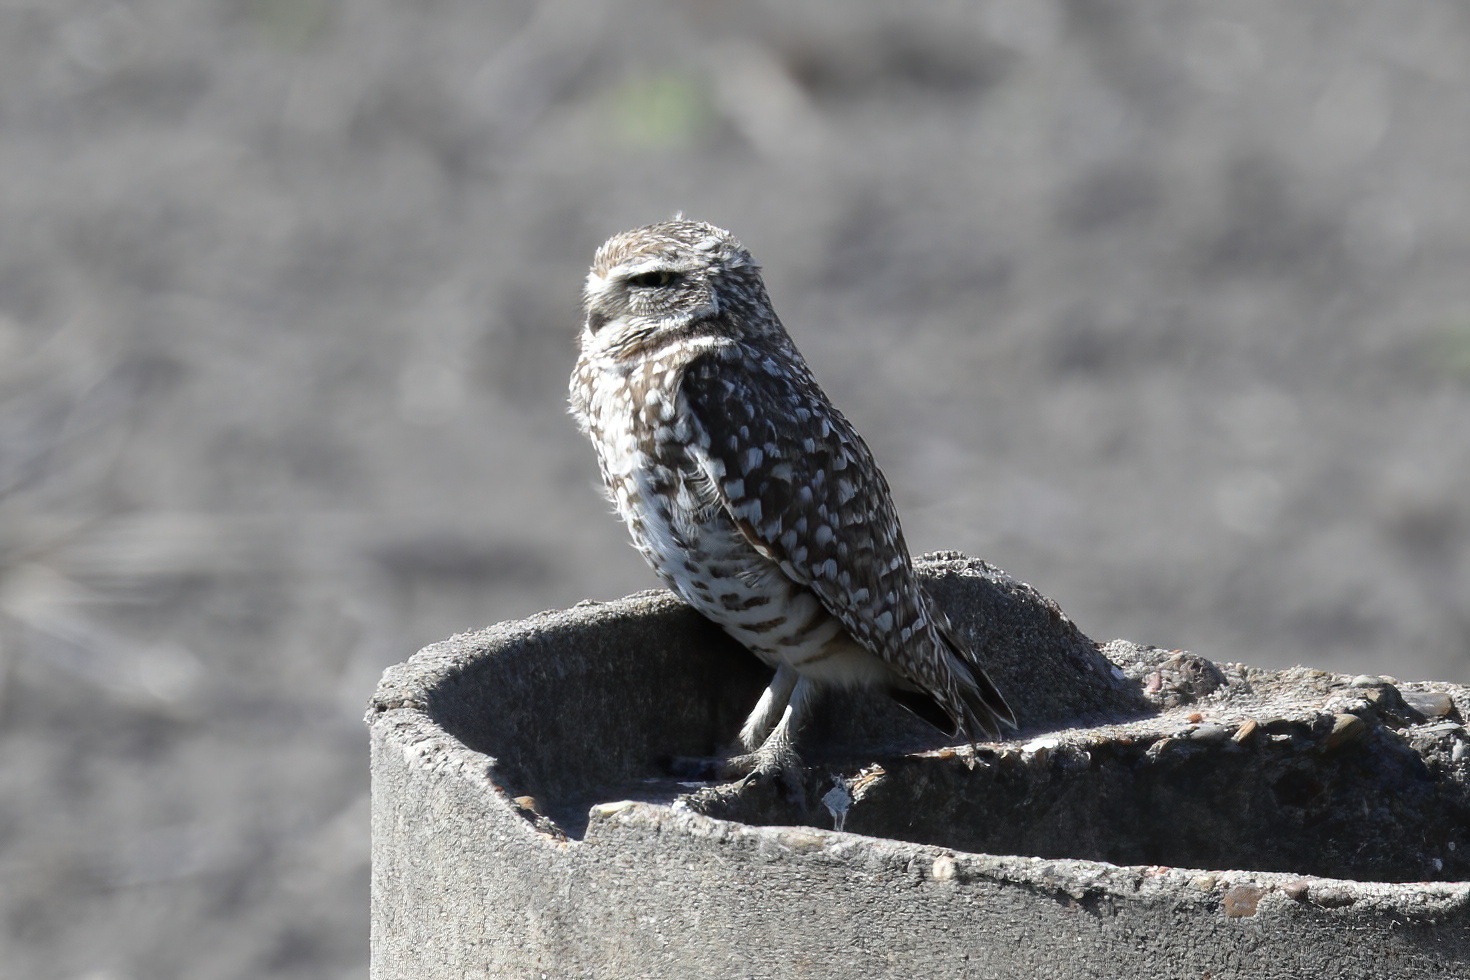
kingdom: Animalia
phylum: Chordata
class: Aves
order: Strigiformes
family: Strigidae
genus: Athene
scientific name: Athene cunicularia
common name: Burrowing owl
